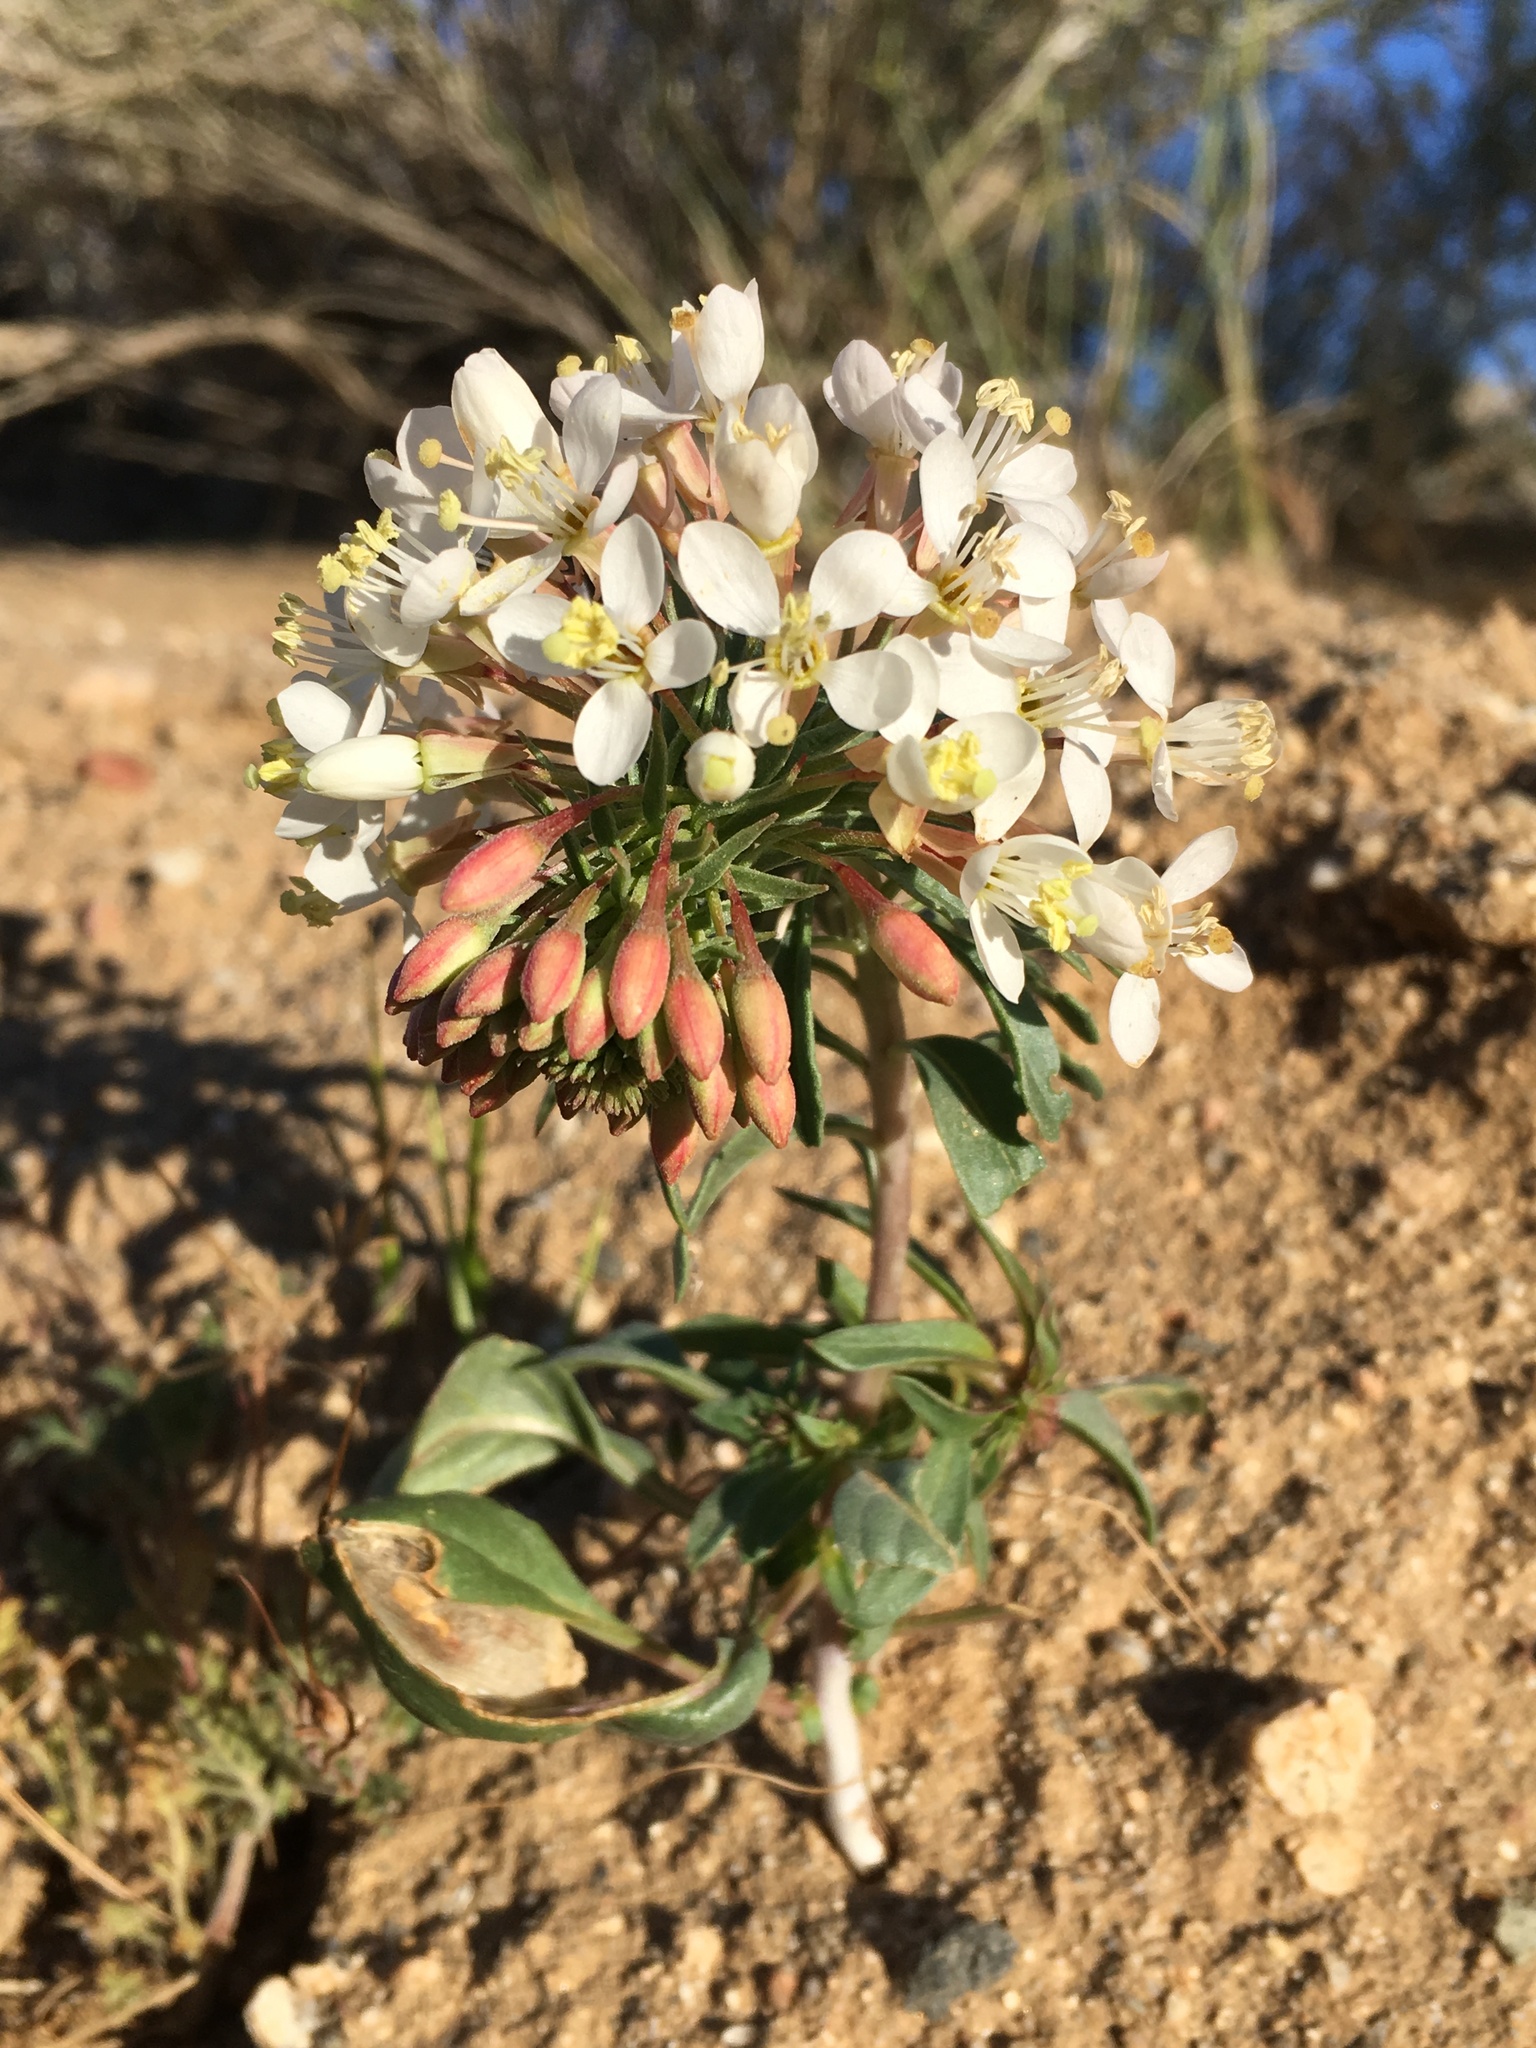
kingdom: Plantae
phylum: Tracheophyta
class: Magnoliopsida
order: Myrtales
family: Onagraceae
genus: Eremothera
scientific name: Eremothera boothii
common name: Booth's evening primrose
